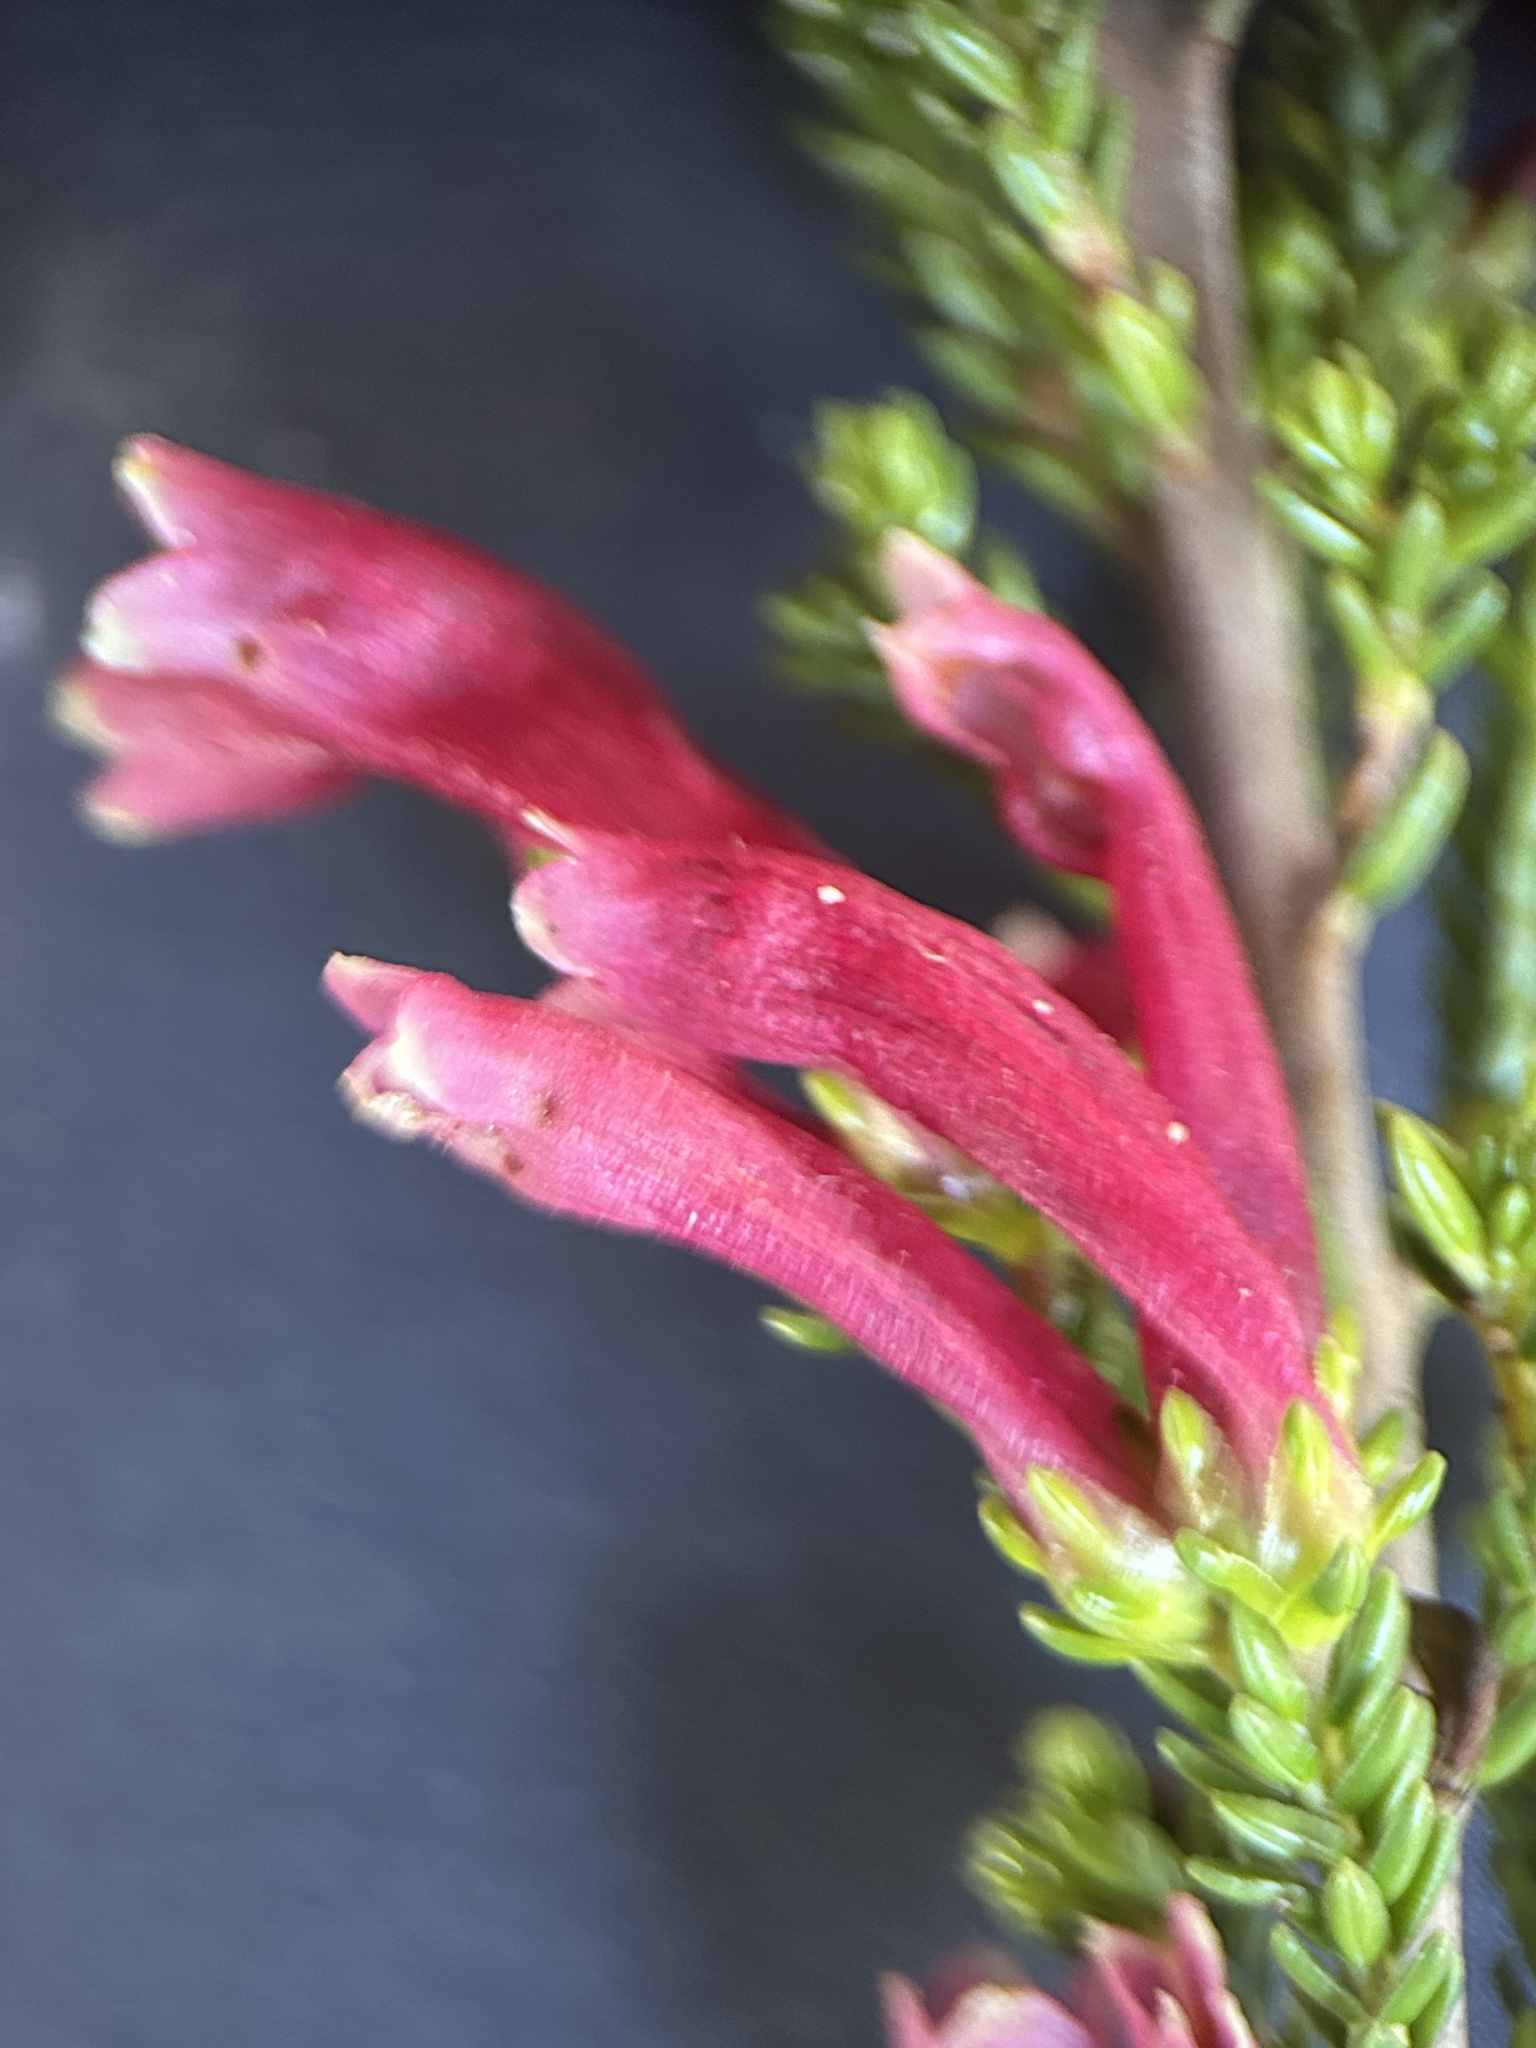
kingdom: Plantae
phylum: Tracheophyta
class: Magnoliopsida
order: Ericales
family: Ericaceae
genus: Erica
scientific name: Erica versicolor
